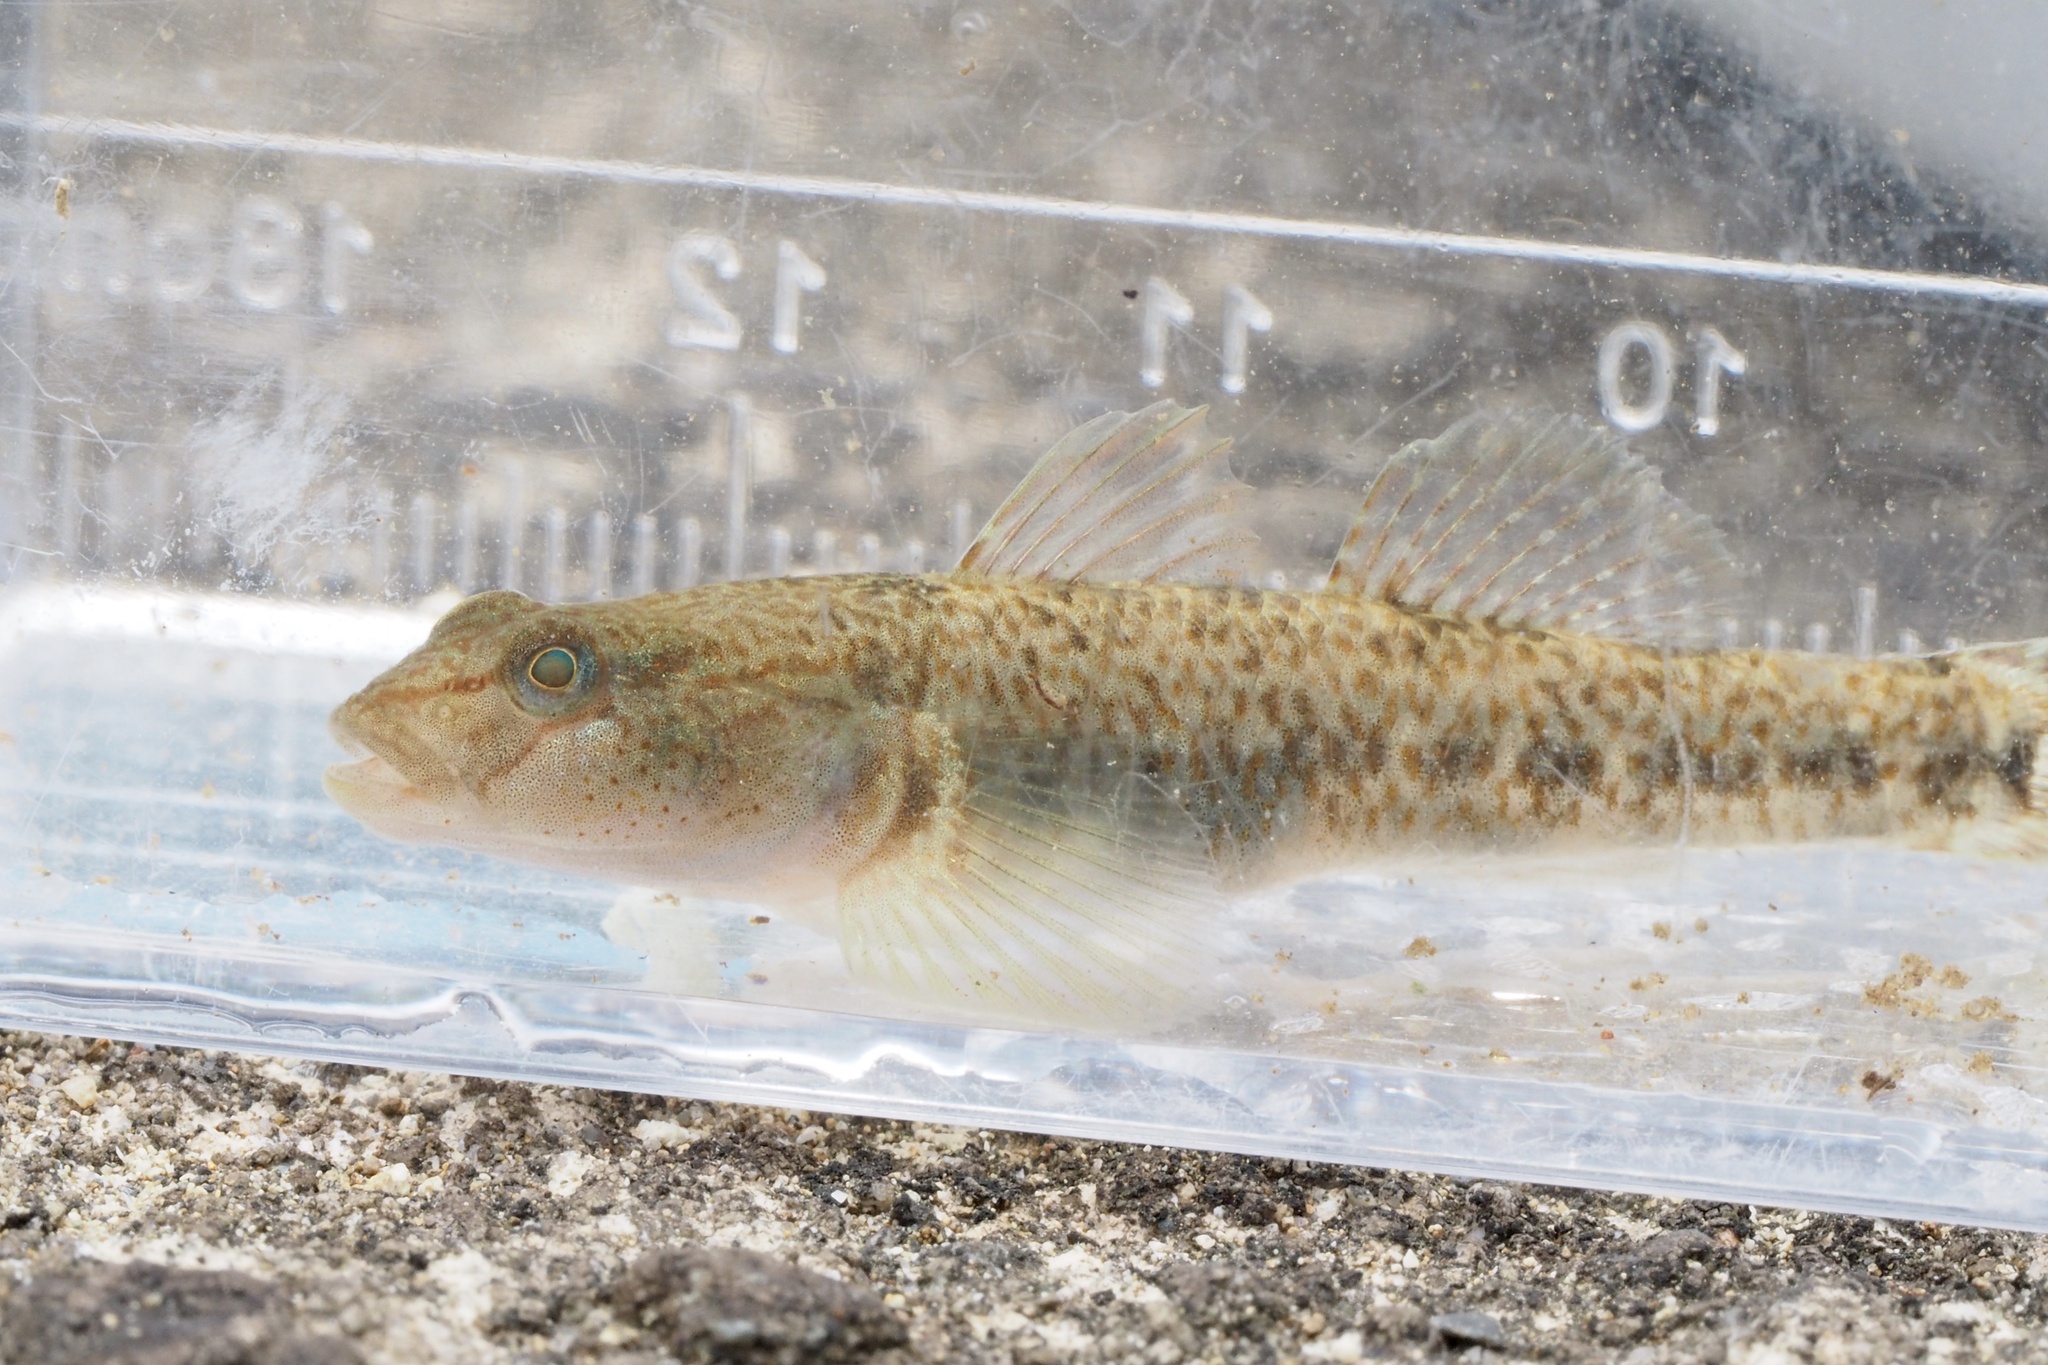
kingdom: Animalia
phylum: Chordata
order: Perciformes
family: Gobiidae
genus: Rhinogobius
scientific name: Rhinogobius flumineus
